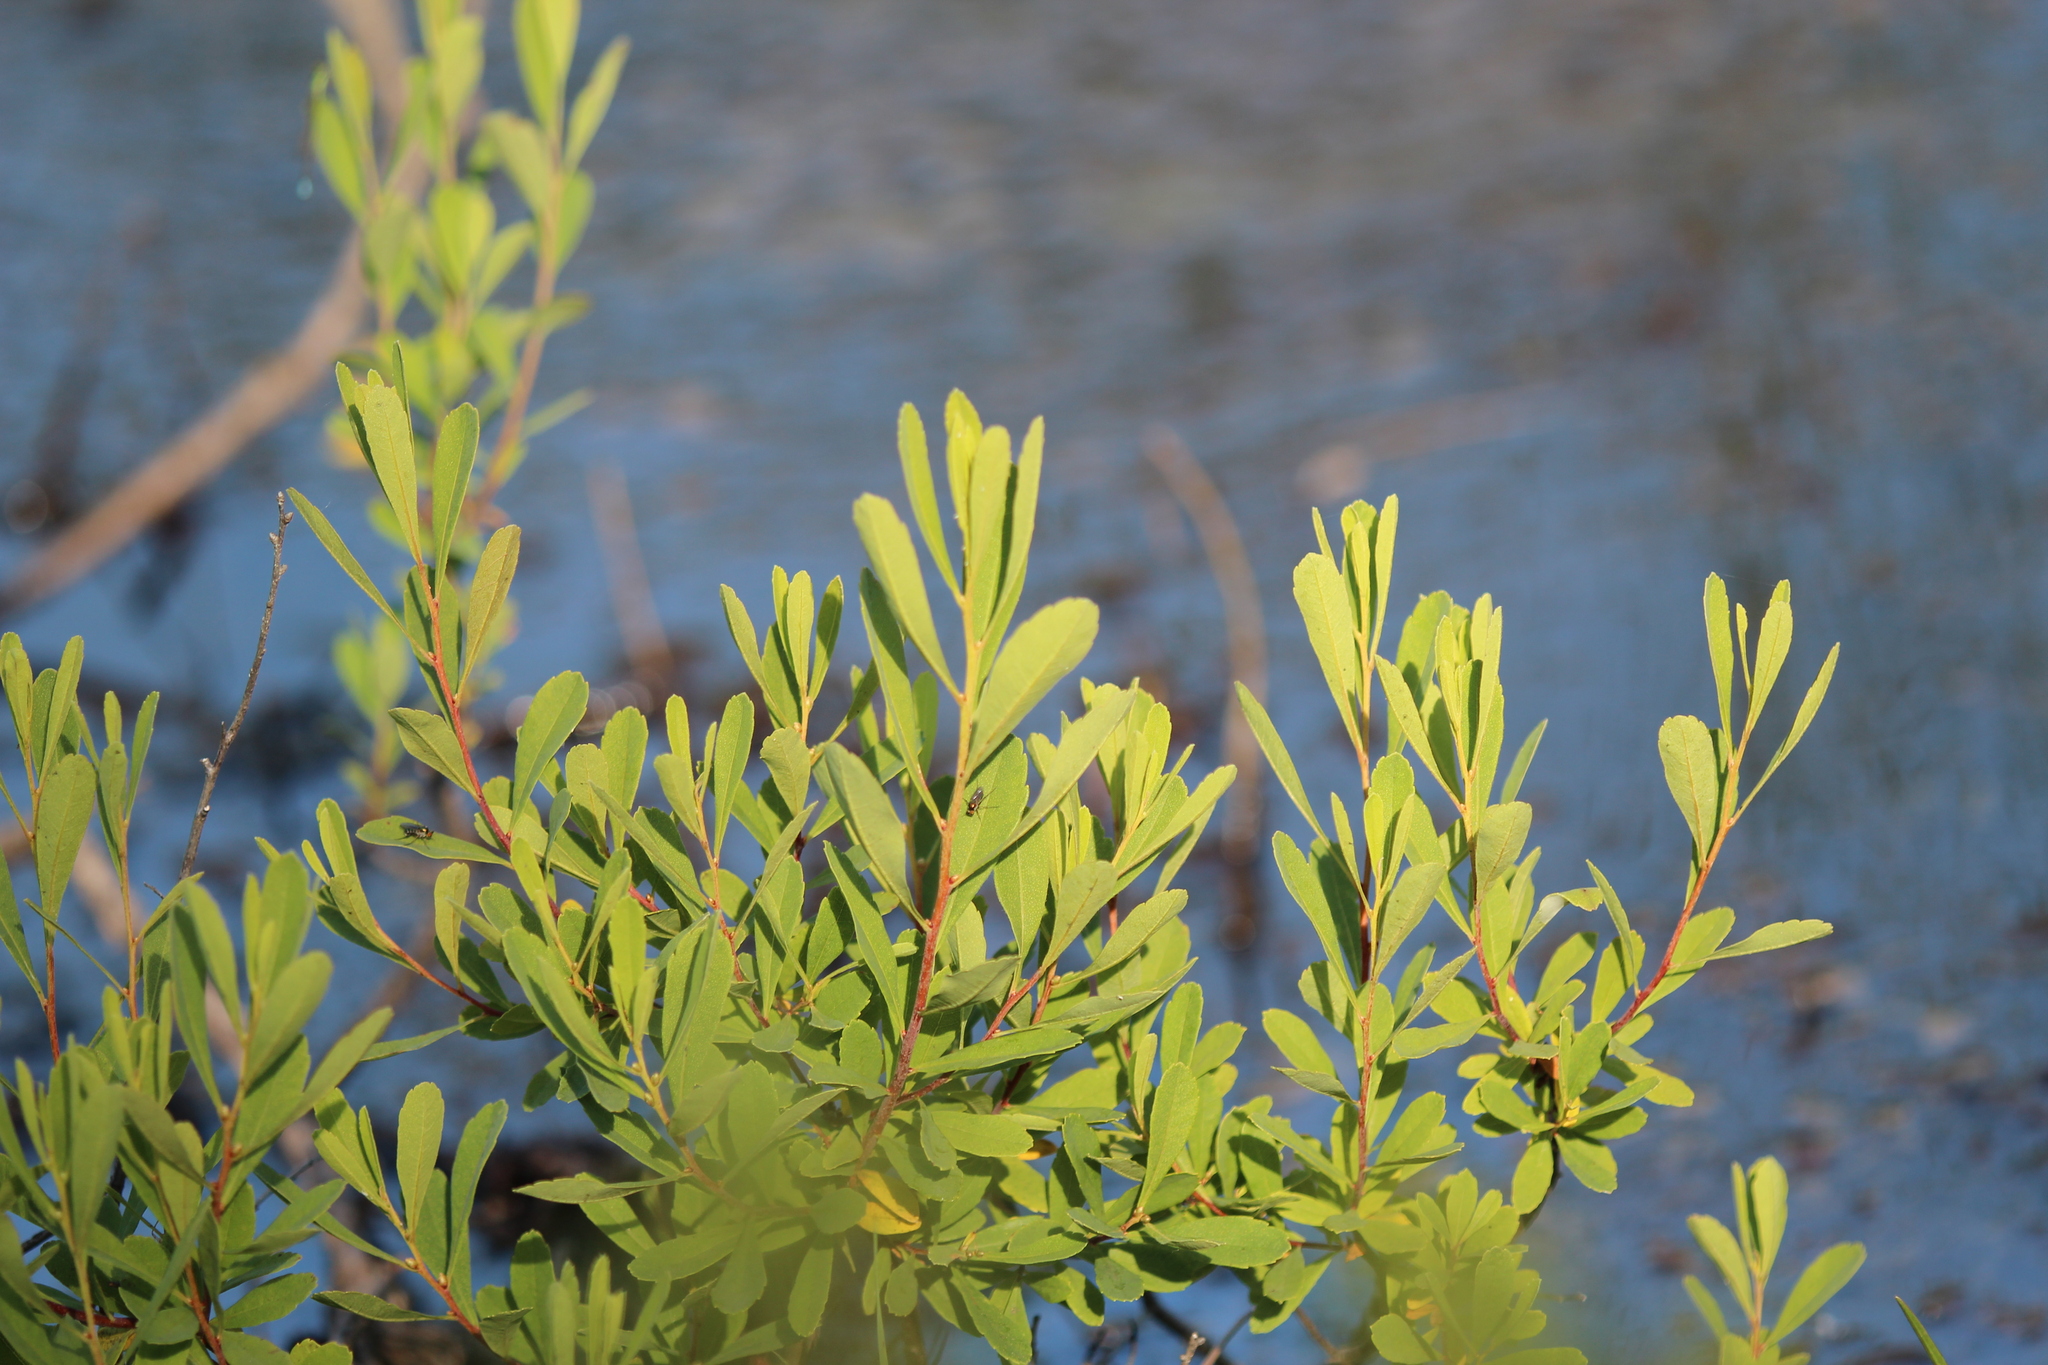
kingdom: Plantae
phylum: Tracheophyta
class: Magnoliopsida
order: Fagales
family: Myricaceae
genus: Myrica
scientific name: Myrica gale
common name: Sweet gale
